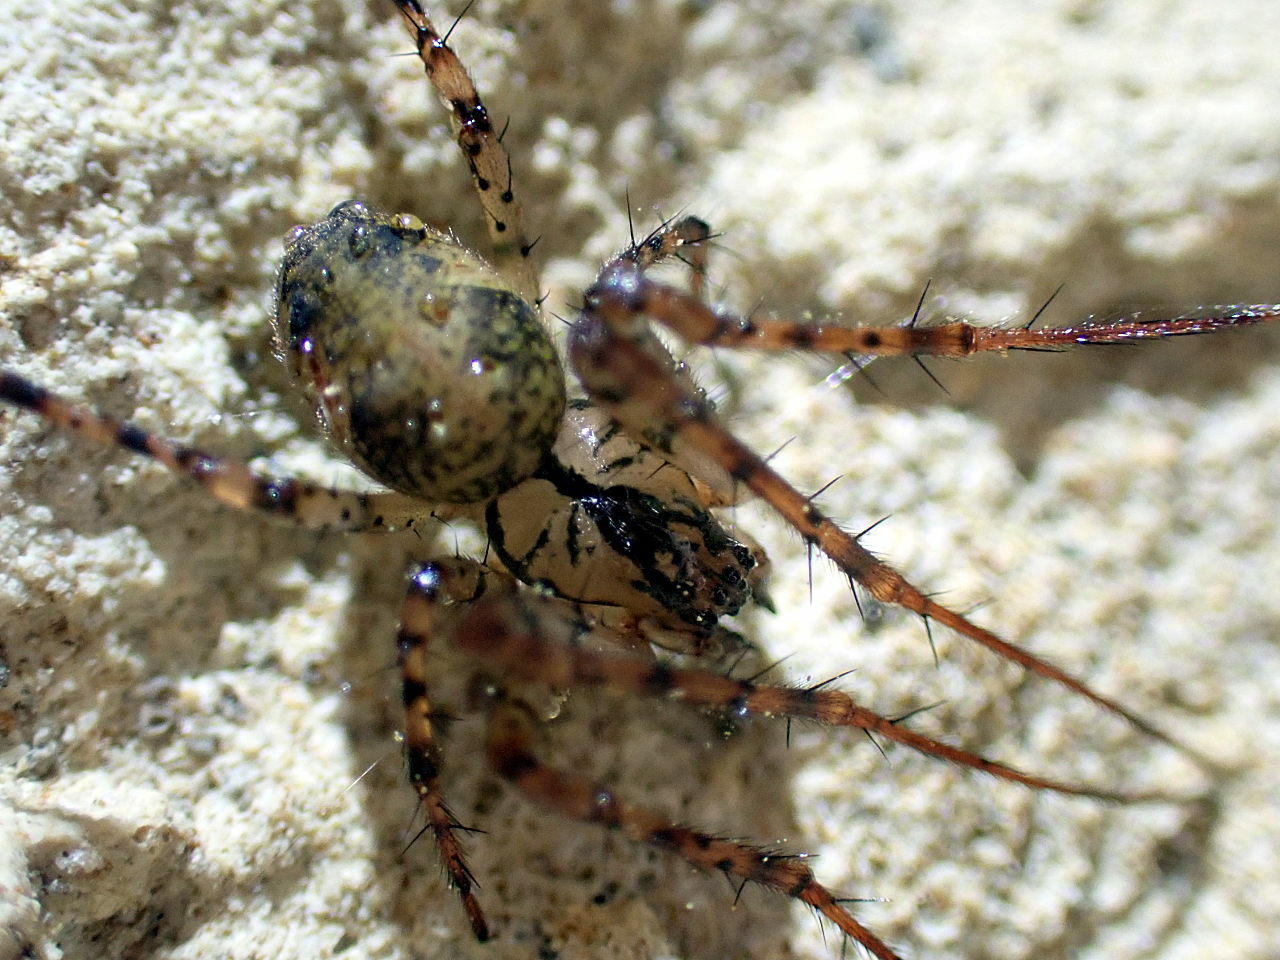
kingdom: Animalia
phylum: Arthropoda
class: Arachnida
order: Araneae
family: Tetragnathidae
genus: Metellina
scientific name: Metellina merianae
